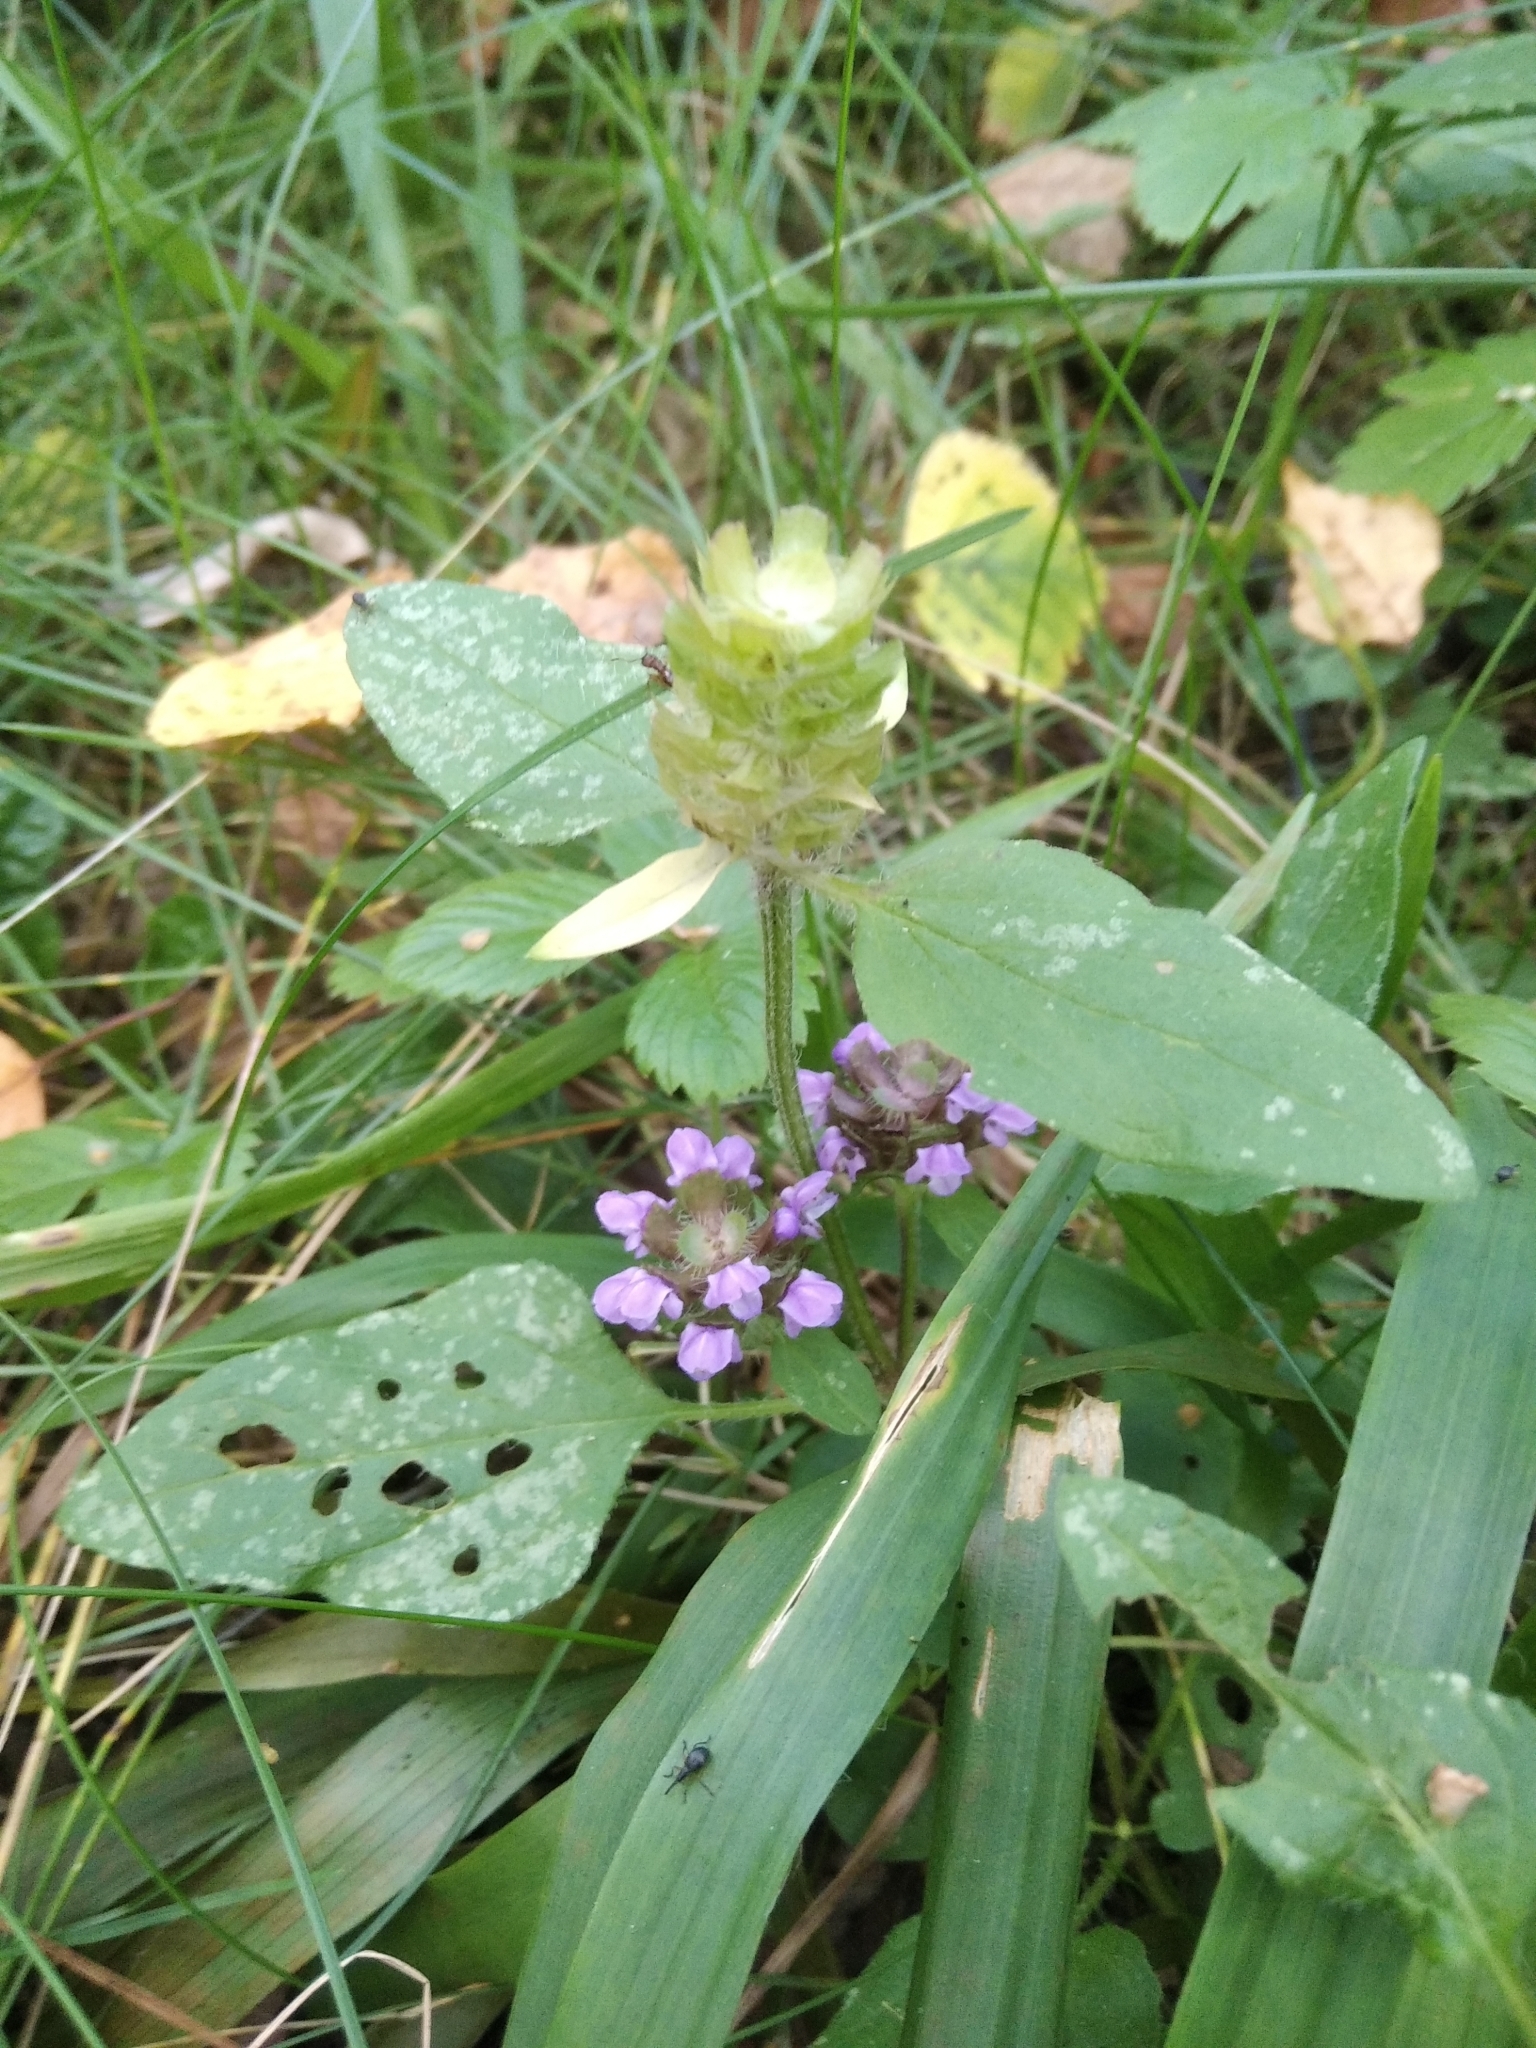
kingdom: Plantae
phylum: Tracheophyta
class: Magnoliopsida
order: Lamiales
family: Lamiaceae
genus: Prunella
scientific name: Prunella vulgaris
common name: Heal-all
